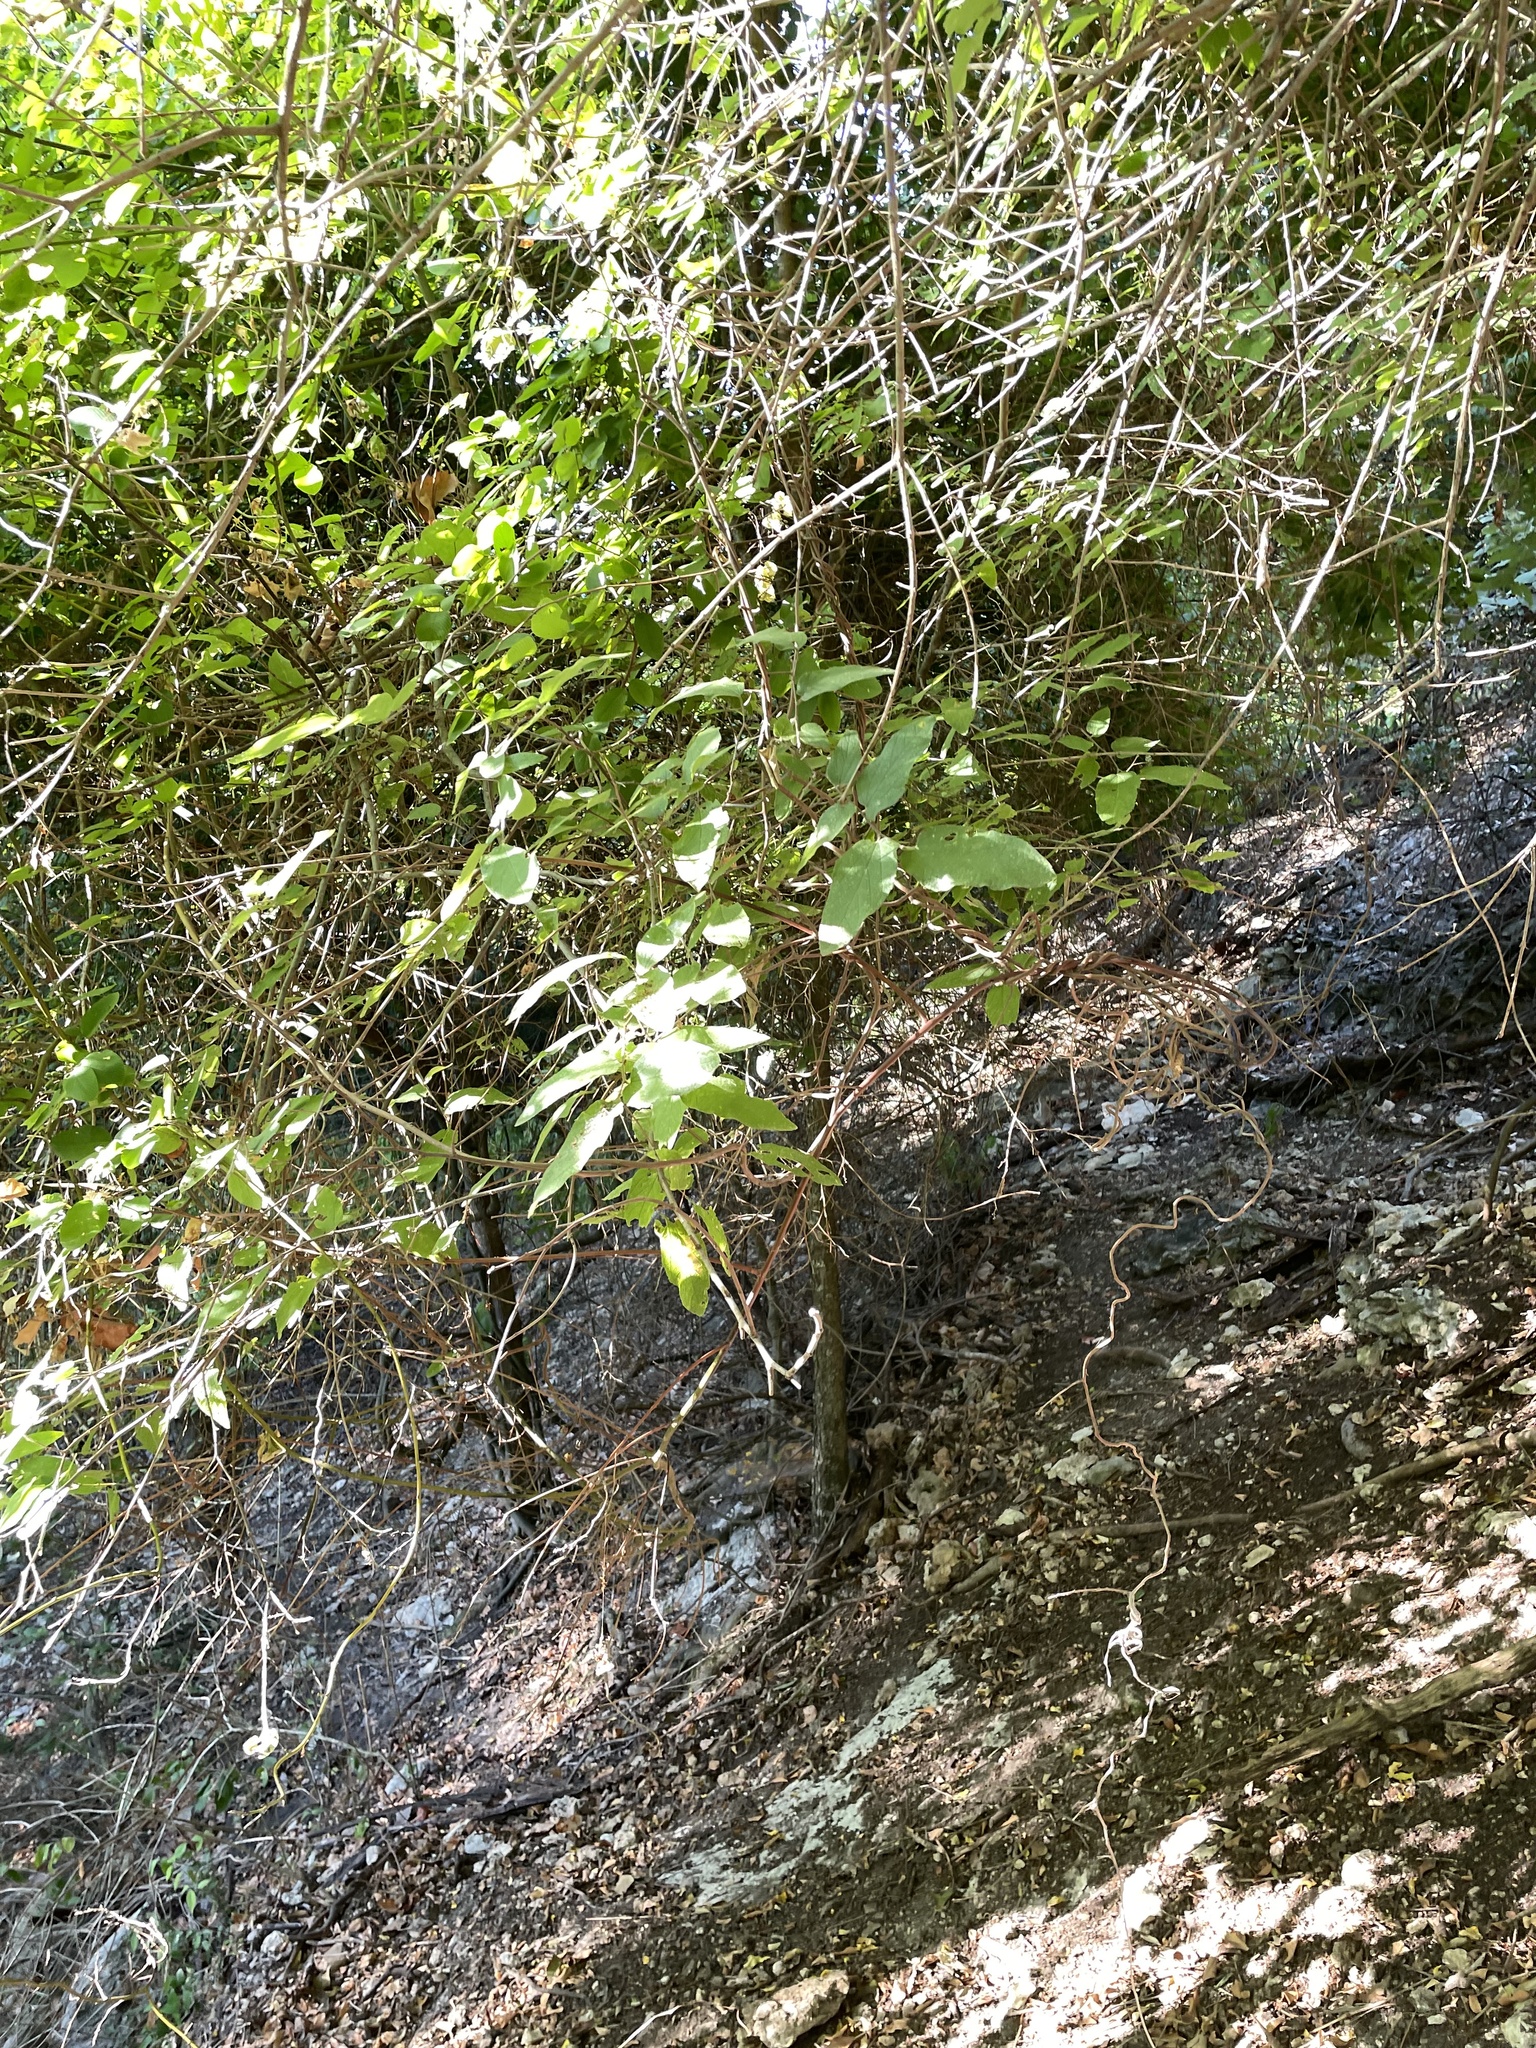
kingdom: Plantae
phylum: Tracheophyta
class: Magnoliopsida
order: Rosales
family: Cannabaceae
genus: Celtis
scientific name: Celtis reticulata
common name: Netleaf hackberry
